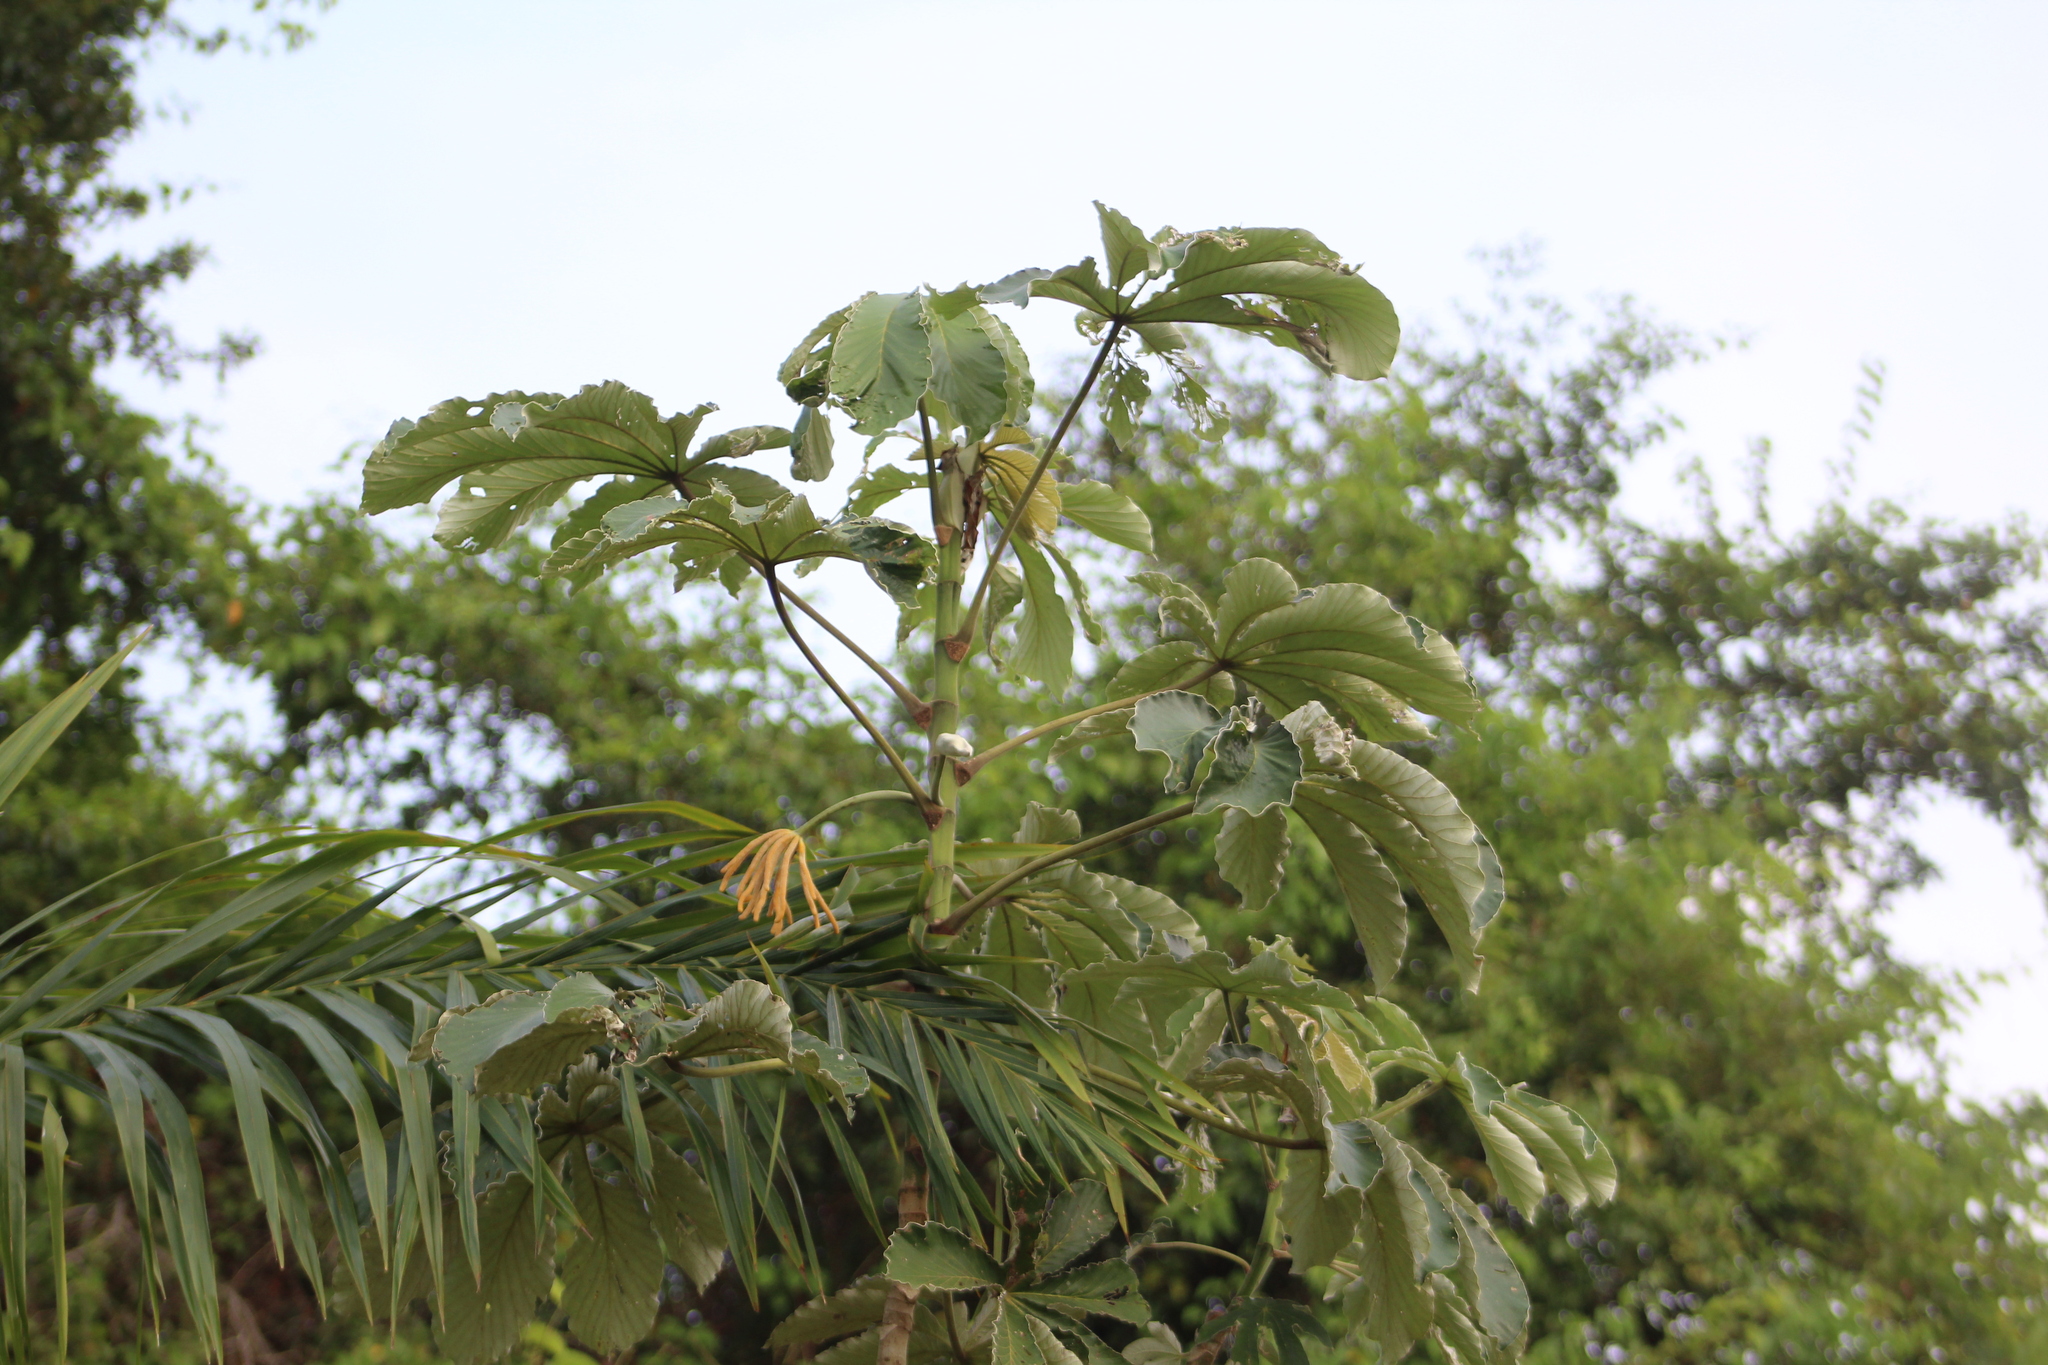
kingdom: Plantae
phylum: Tracheophyta
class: Magnoliopsida
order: Rosales
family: Urticaceae
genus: Cecropia
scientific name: Cecropia litoralis
